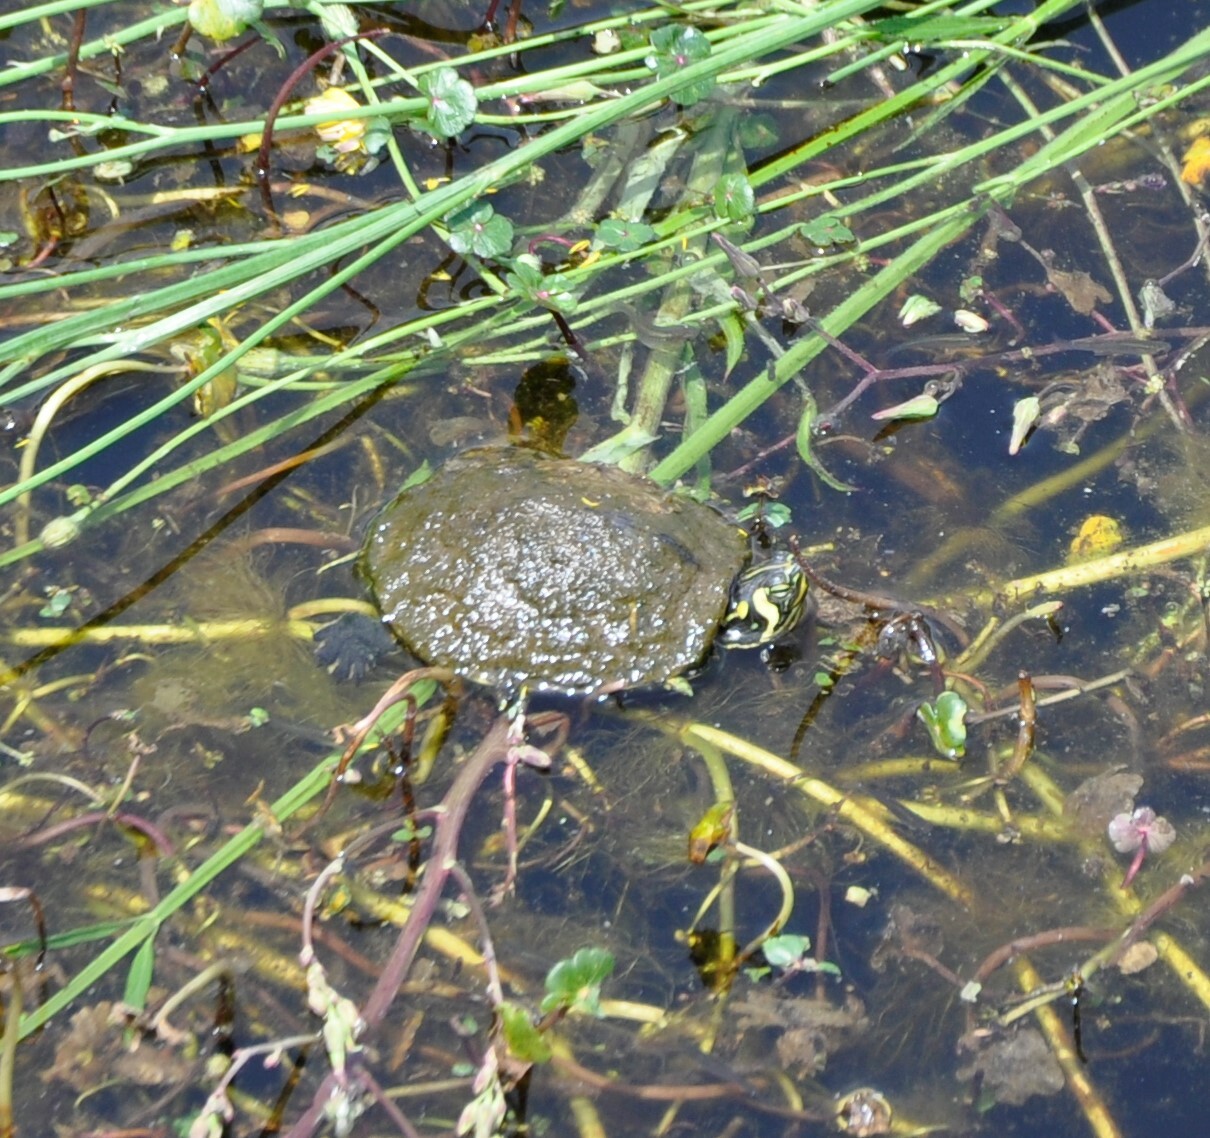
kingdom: Animalia
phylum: Chordata
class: Testudines
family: Emydidae
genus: Trachemys
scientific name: Trachemys scripta
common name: Slider
